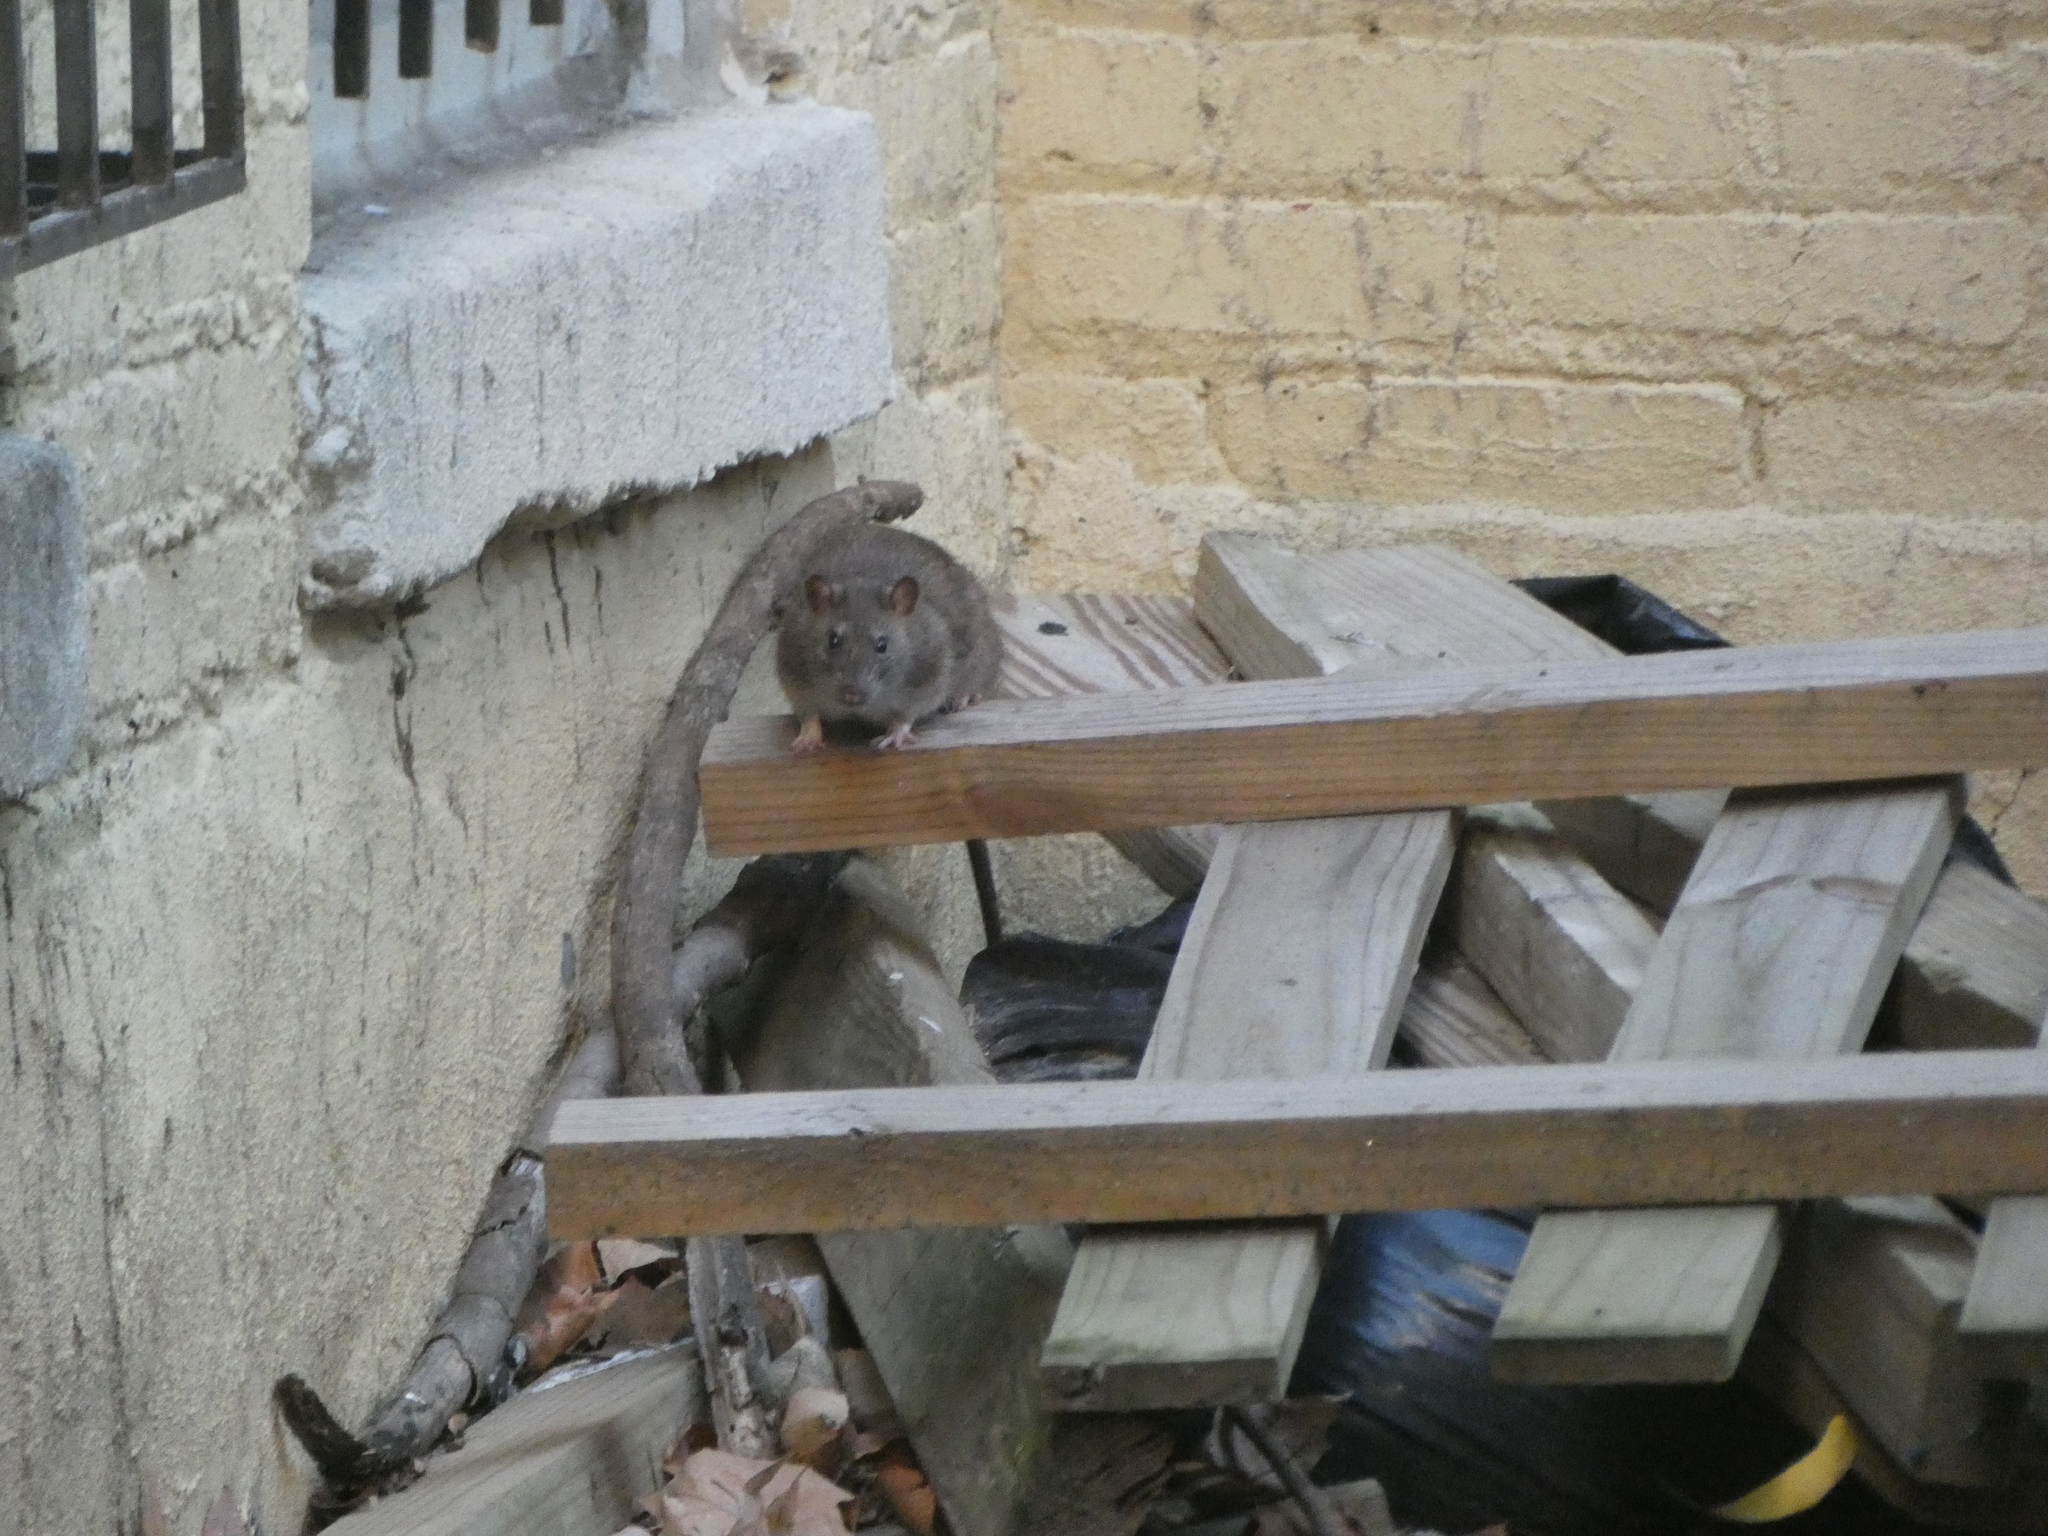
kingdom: Animalia
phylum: Chordata
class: Mammalia
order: Rodentia
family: Muridae
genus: Rattus
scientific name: Rattus norvegicus
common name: Brown rat
